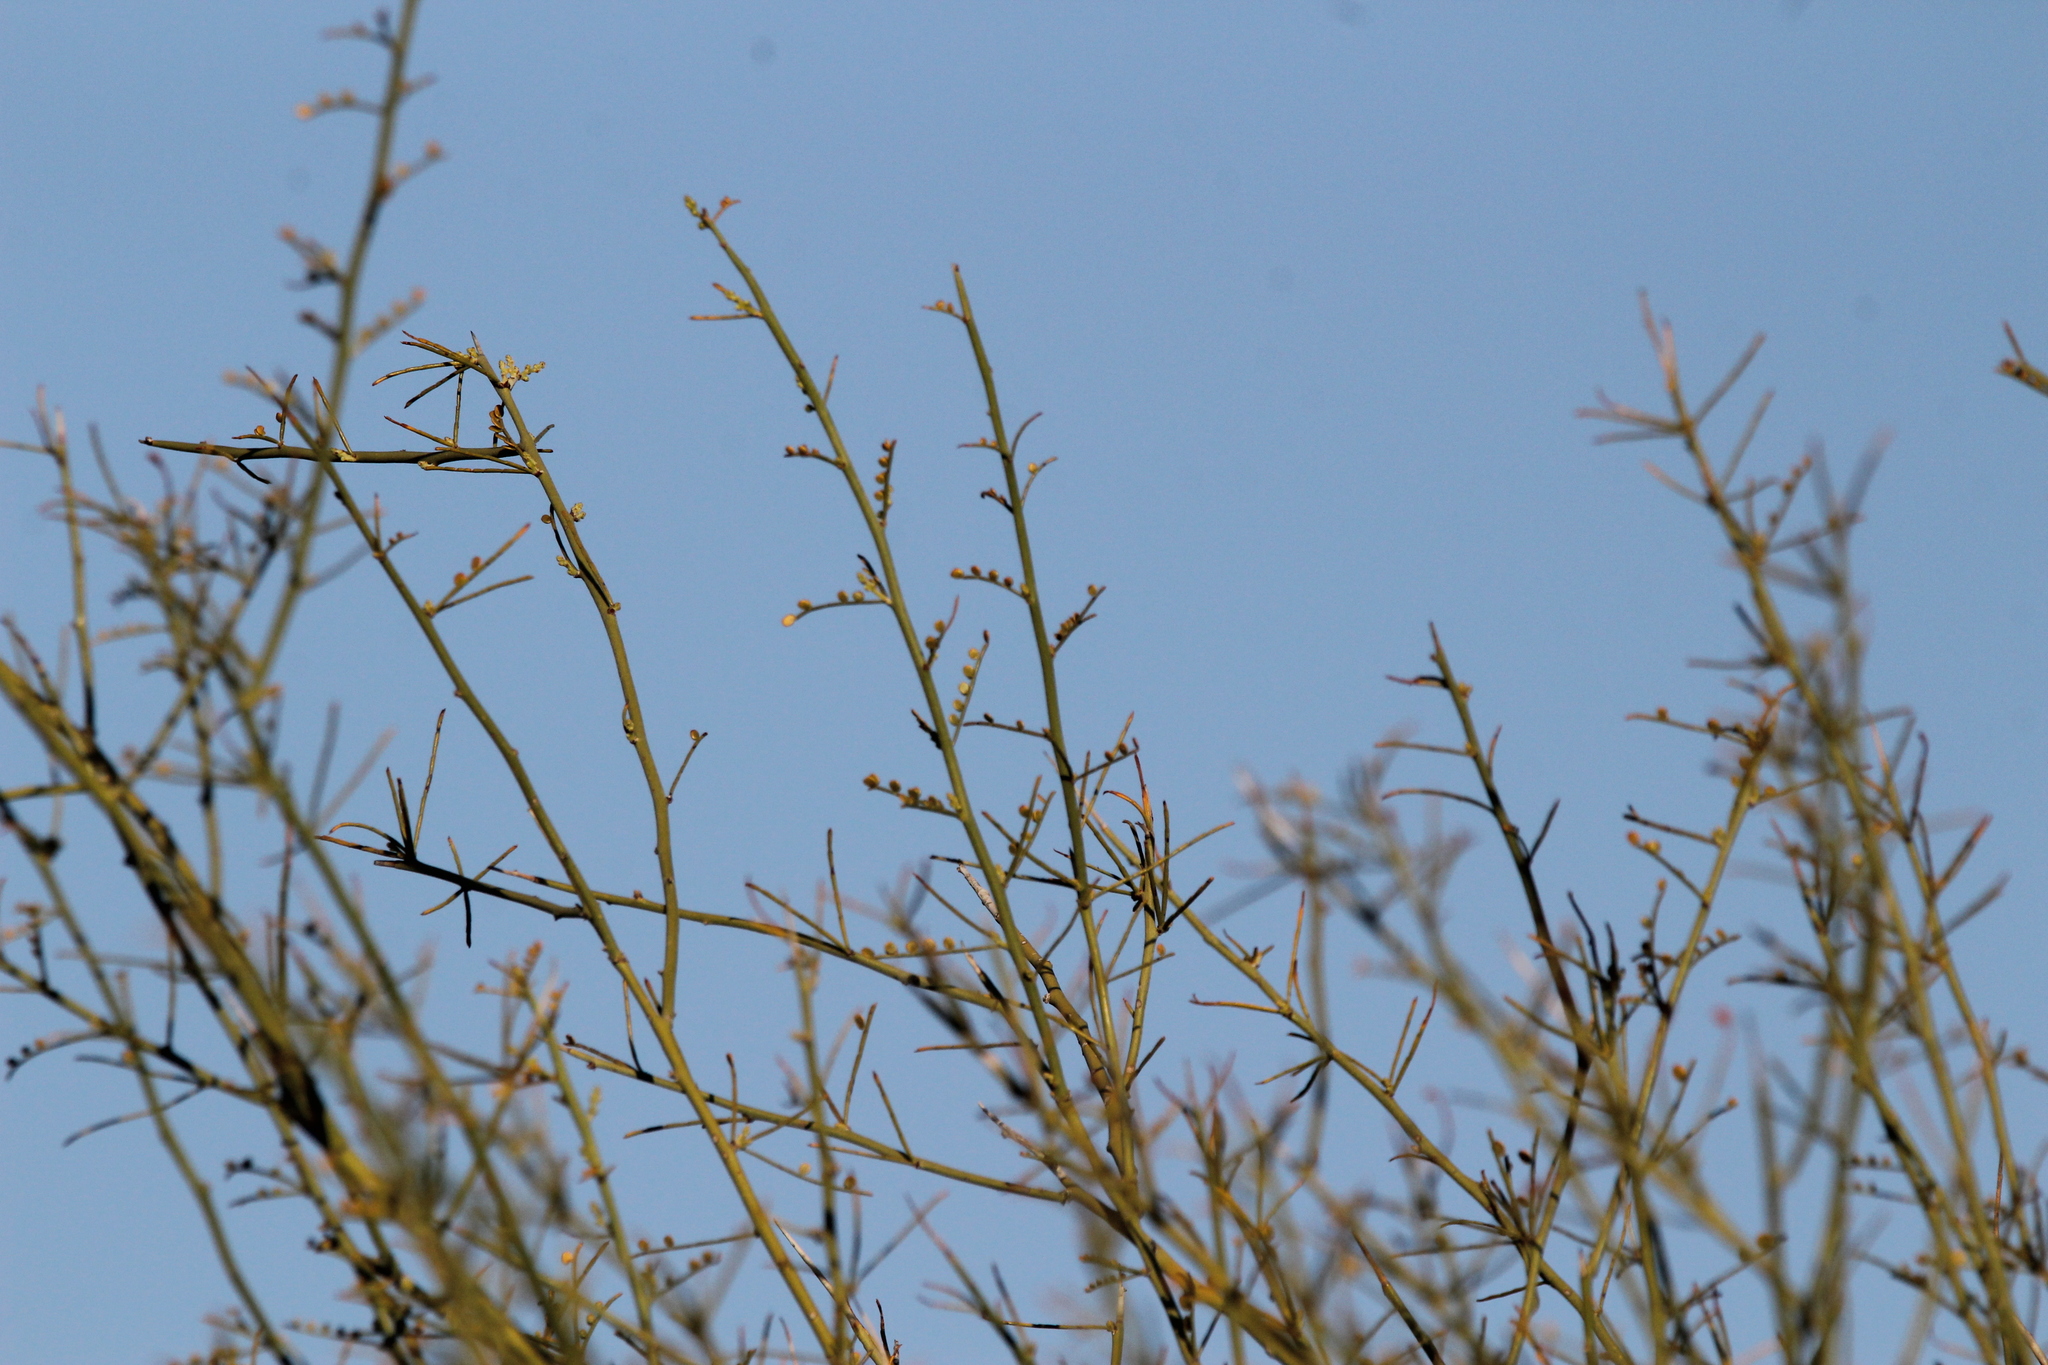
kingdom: Plantae
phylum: Tracheophyta
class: Magnoliopsida
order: Fabales
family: Fabaceae
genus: Parkinsonia
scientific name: Parkinsonia microphylla
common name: Yellow paloverde
